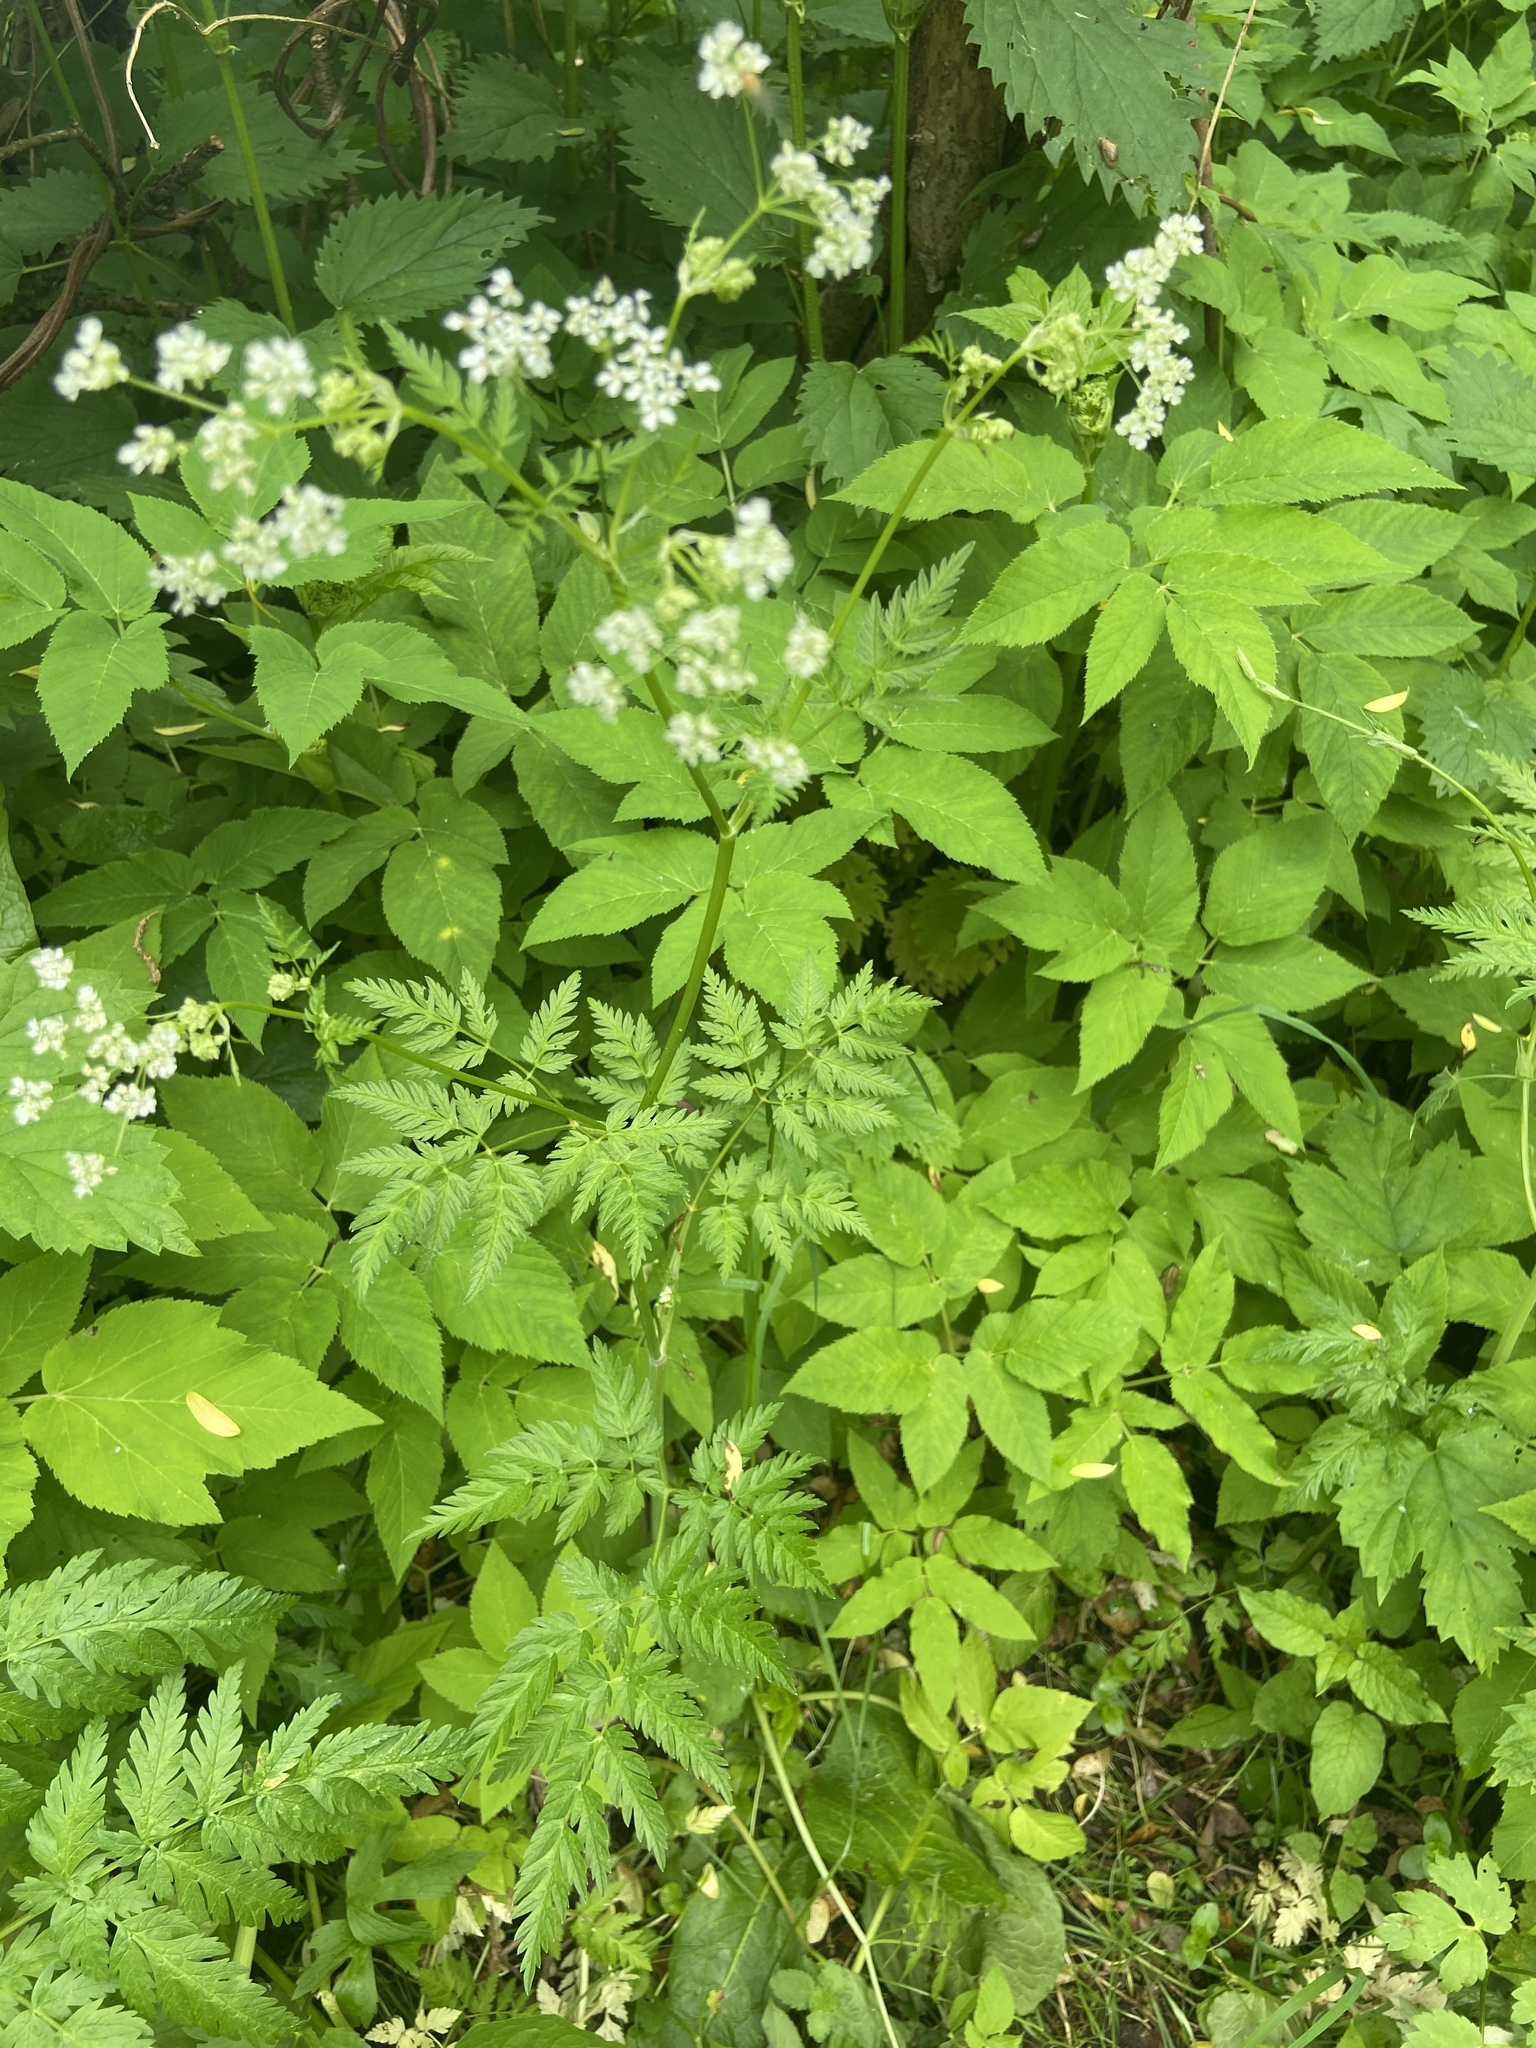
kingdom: Plantae
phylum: Tracheophyta
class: Magnoliopsida
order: Apiales
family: Apiaceae
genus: Anthriscus
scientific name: Anthriscus sylvestris
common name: Cow parsley
